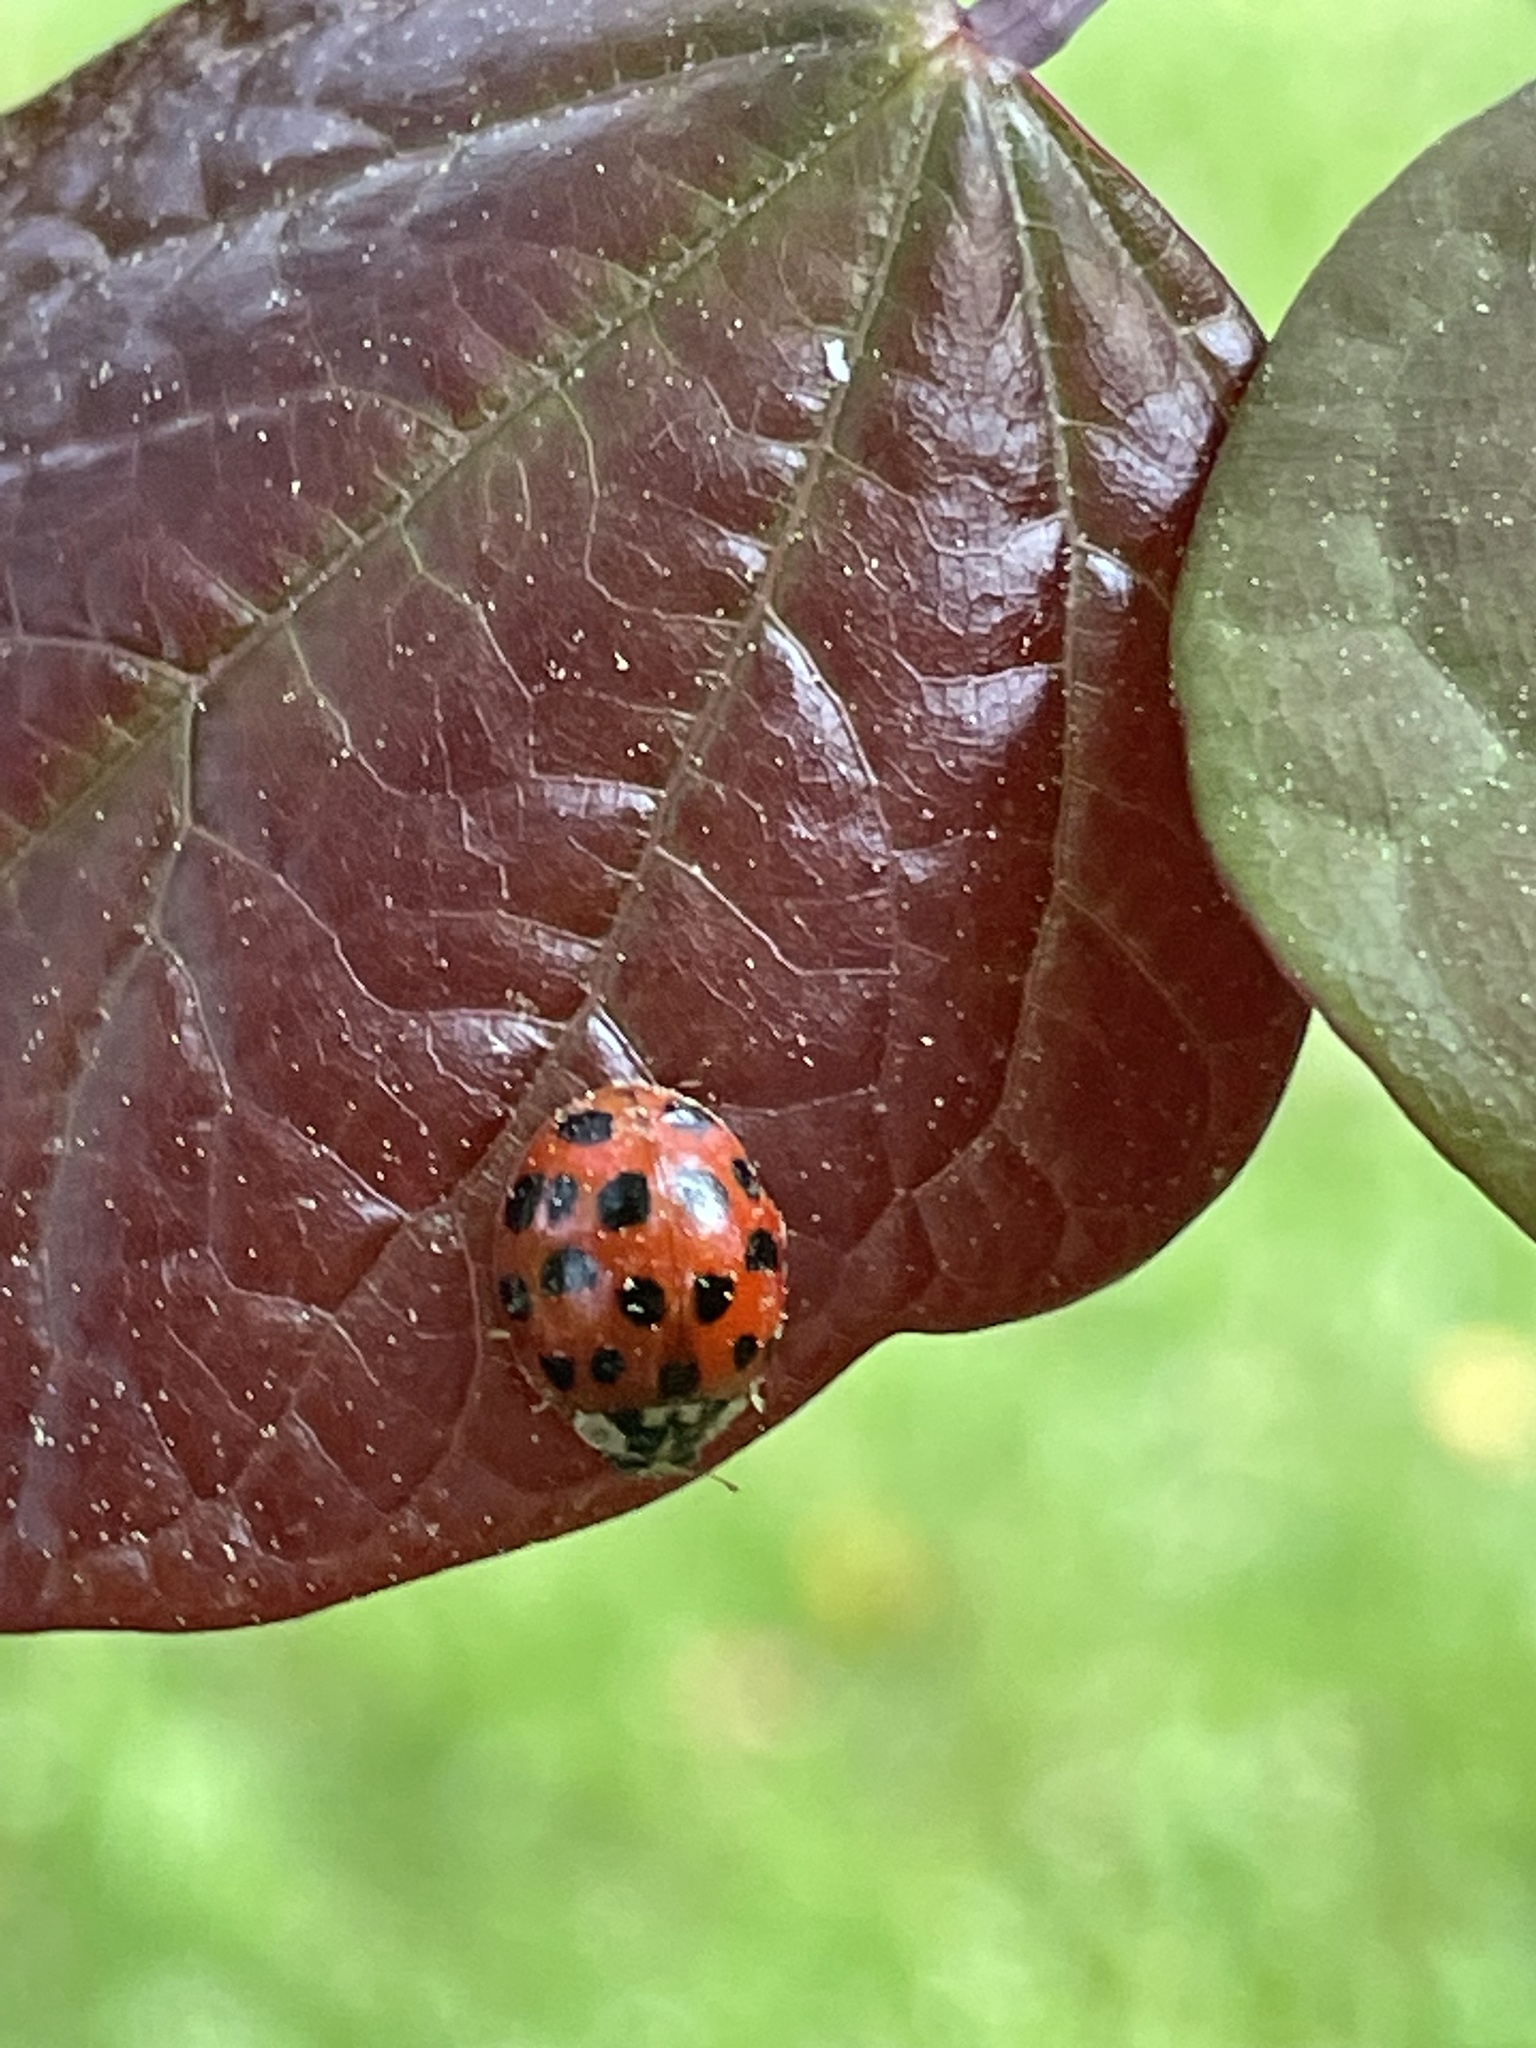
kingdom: Animalia
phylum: Arthropoda
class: Insecta
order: Coleoptera
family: Coccinellidae
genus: Harmonia
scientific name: Harmonia axyridis
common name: Harlequin ladybird
